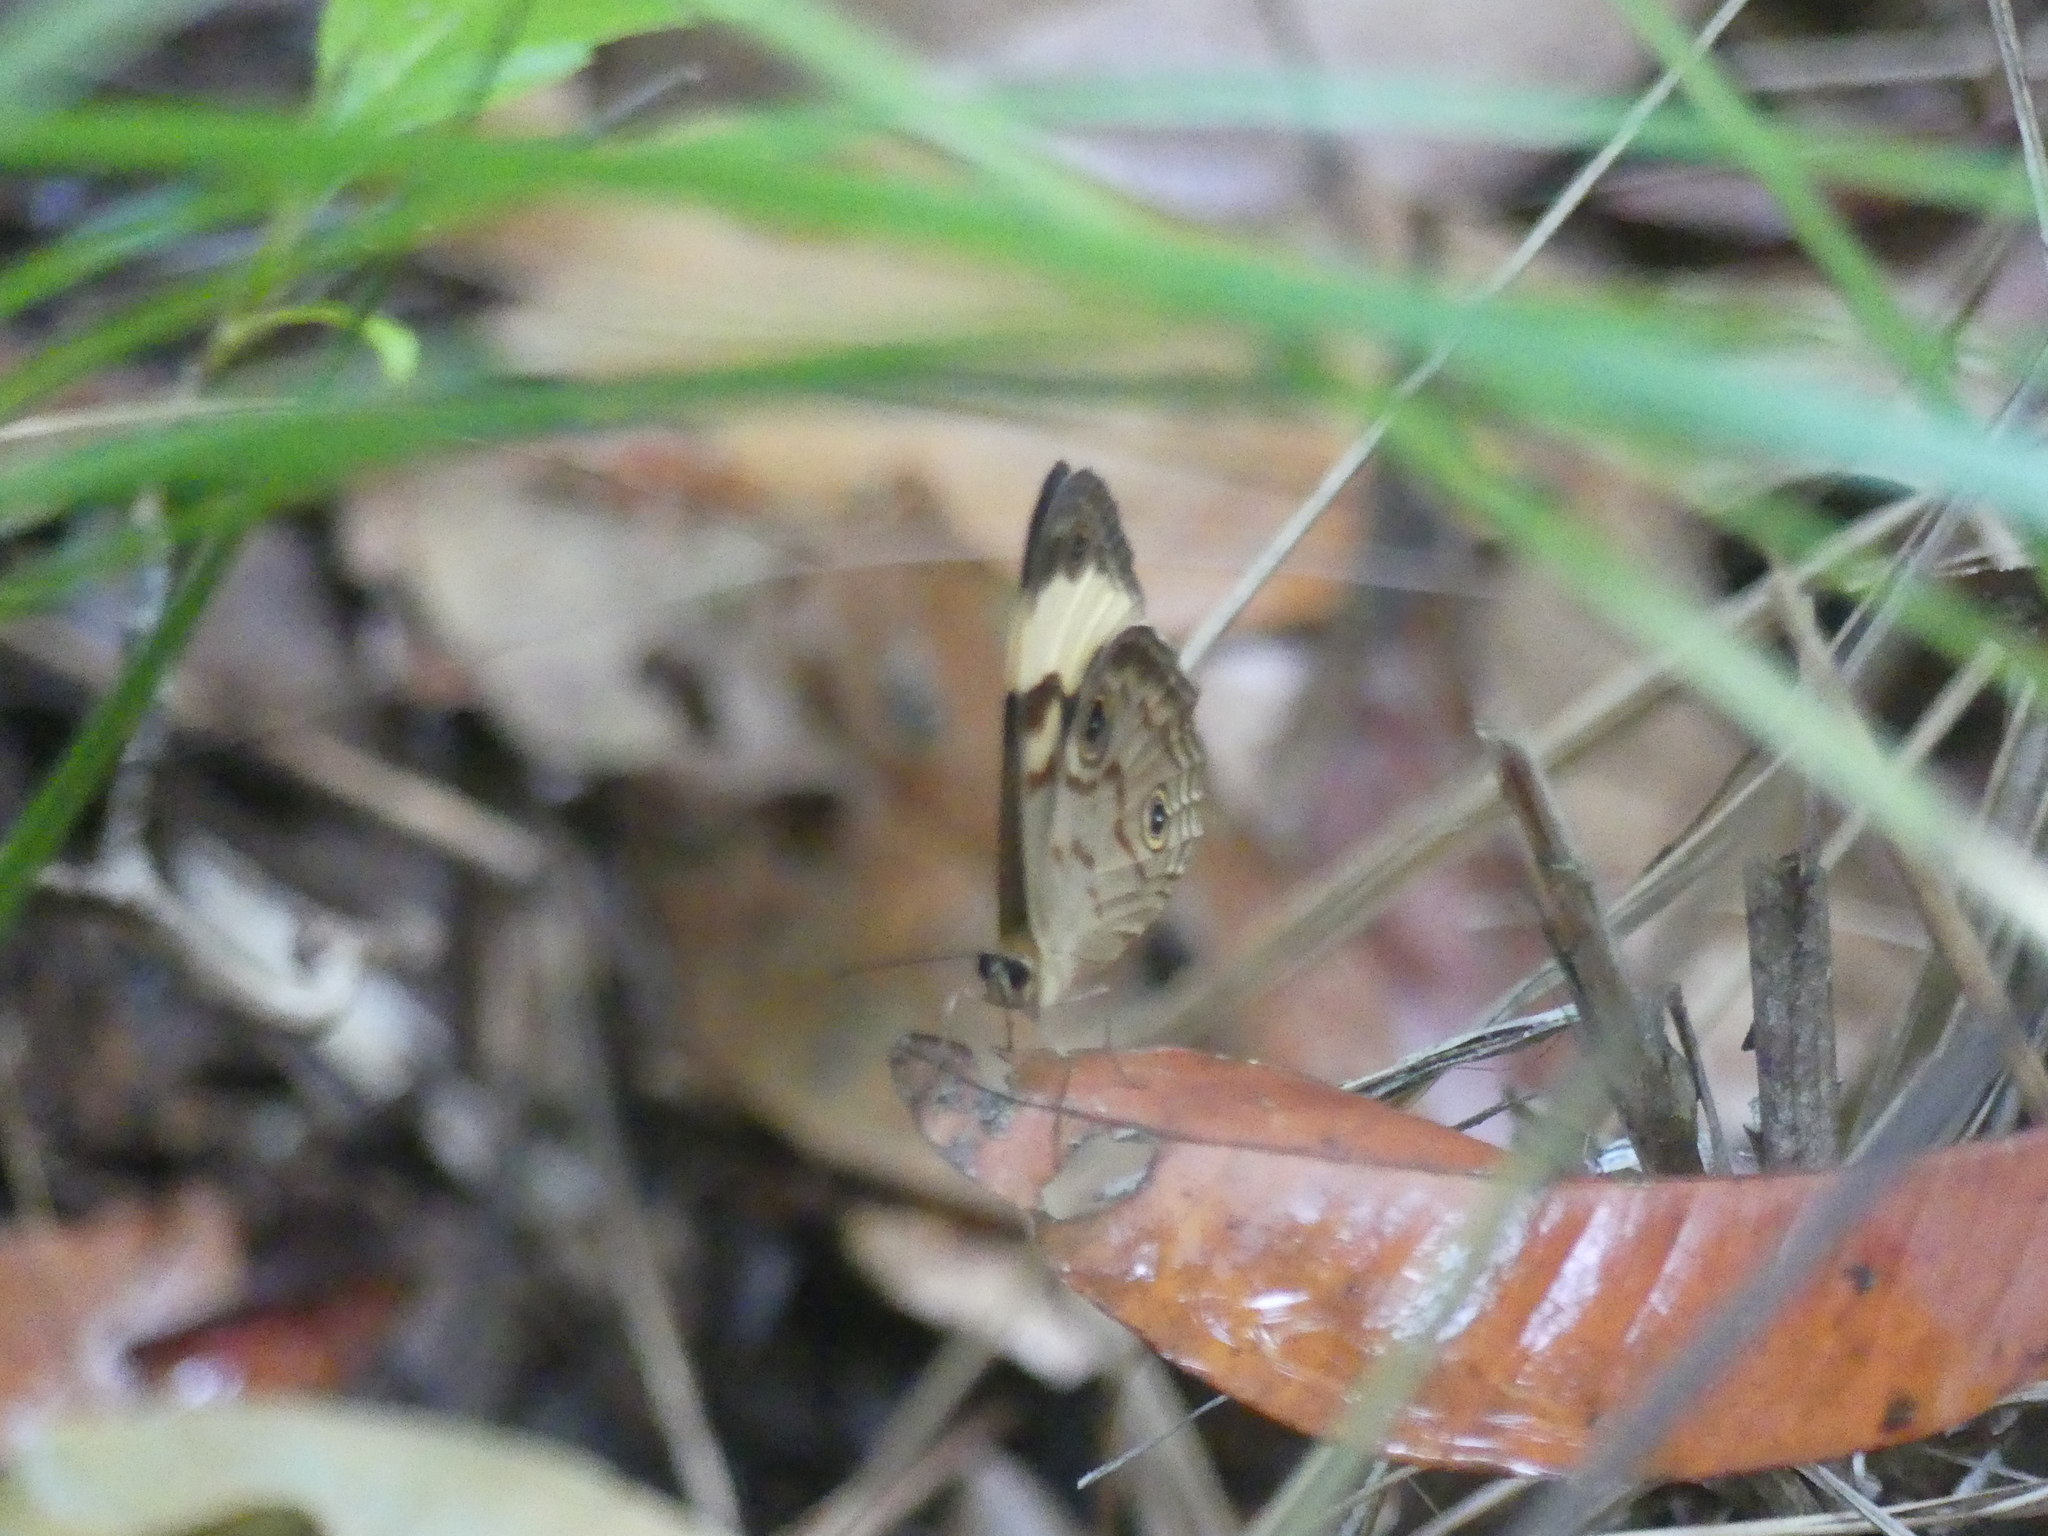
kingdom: Animalia
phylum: Arthropoda
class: Insecta
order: Lepidoptera
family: Nymphalidae
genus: Tisiphone
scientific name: Tisiphone helena
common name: Northern sword-grass brown
